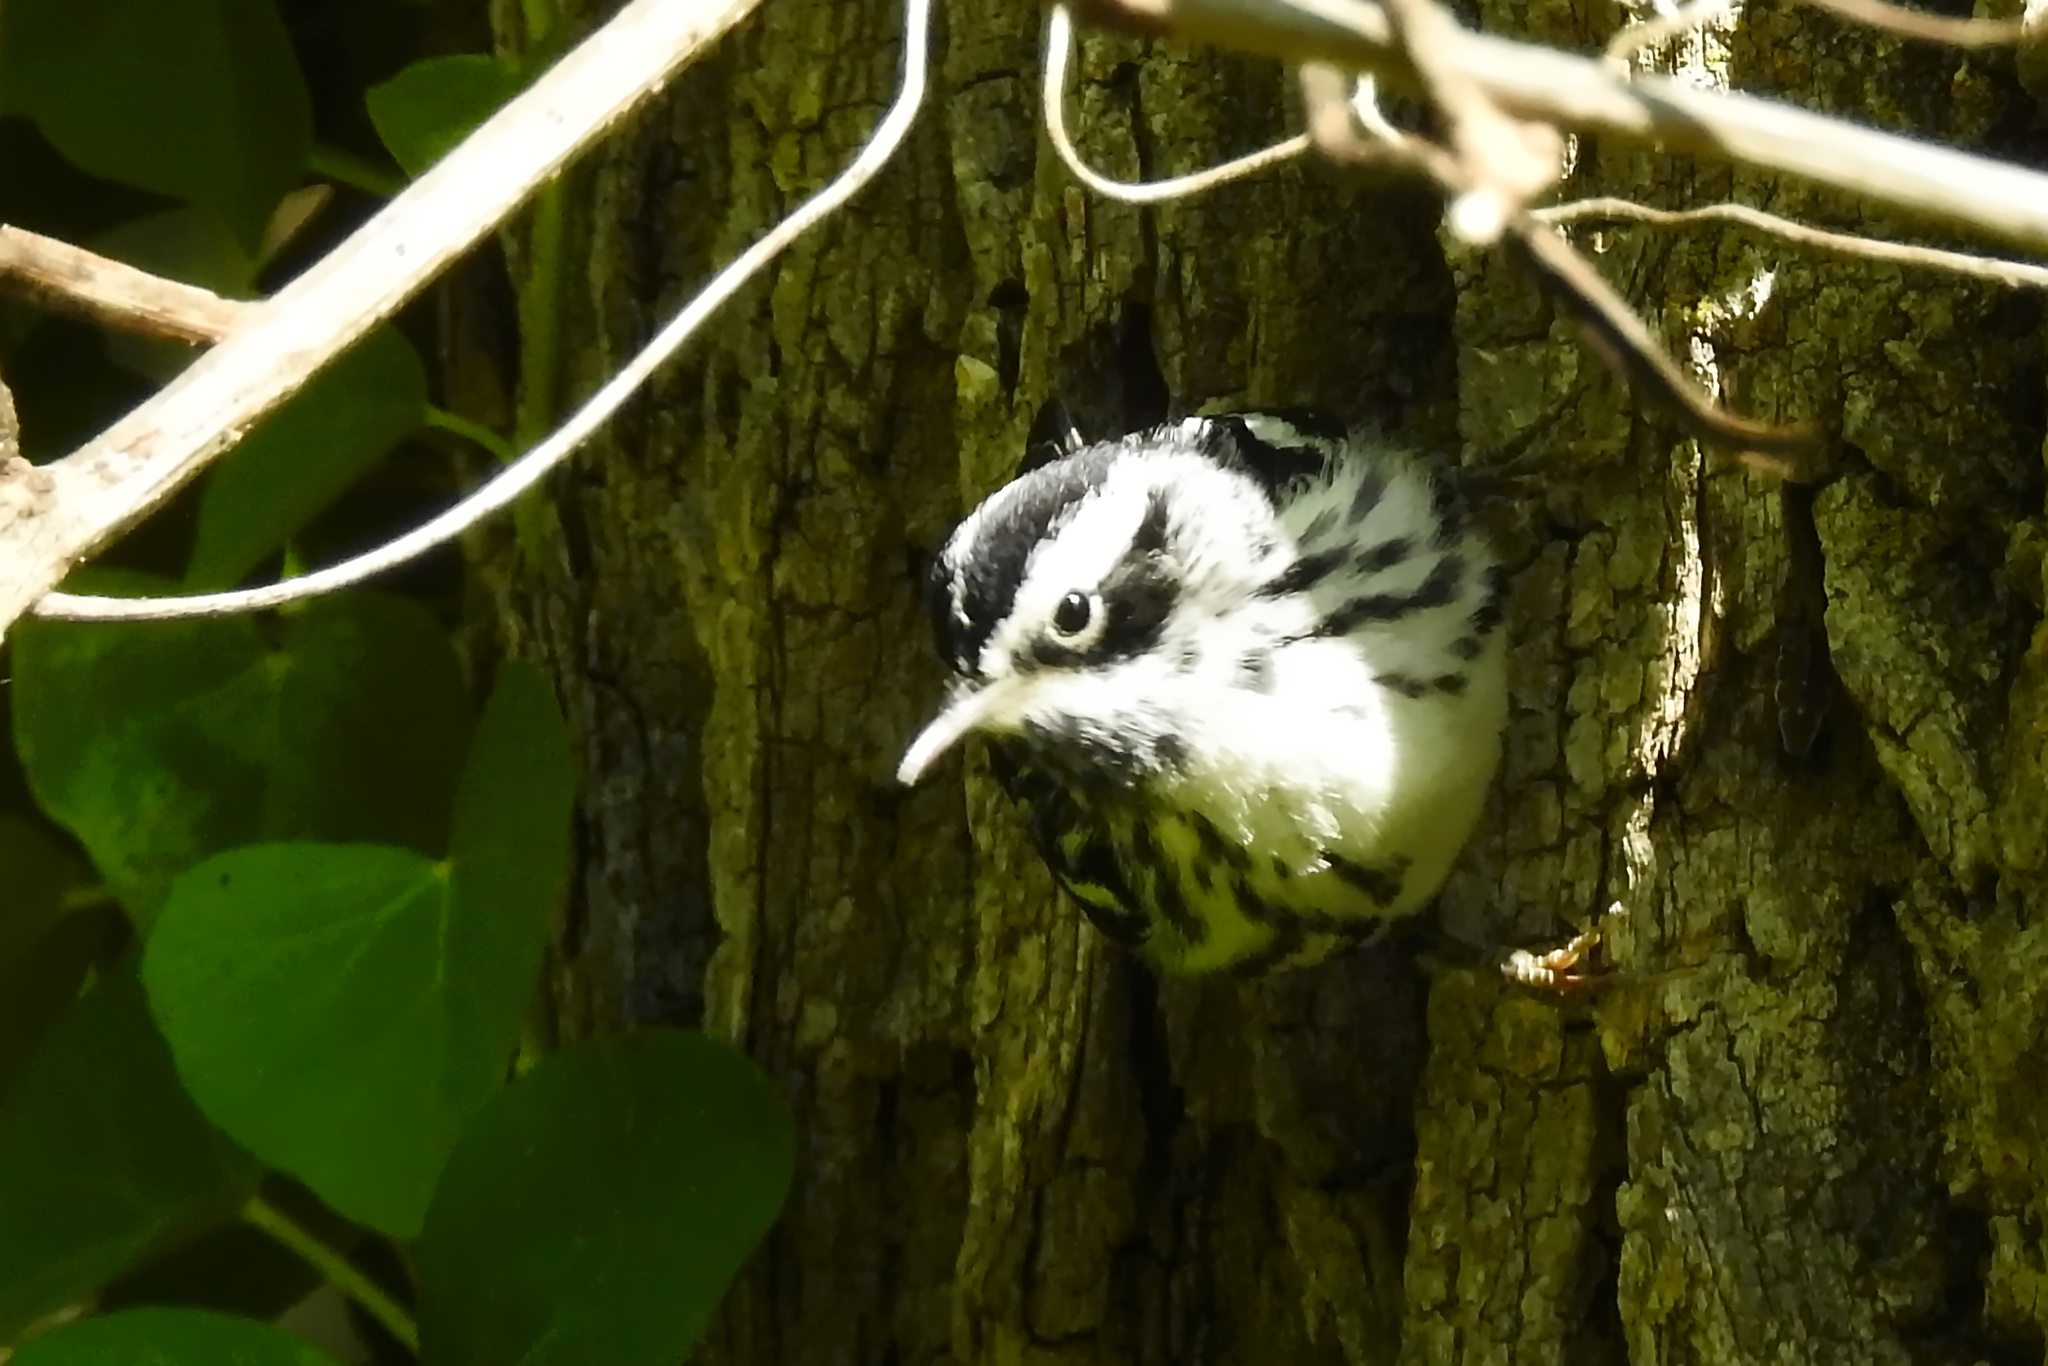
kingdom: Animalia
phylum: Chordata
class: Aves
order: Passeriformes
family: Parulidae
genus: Mniotilta
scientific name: Mniotilta varia
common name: Black-and-white warbler
